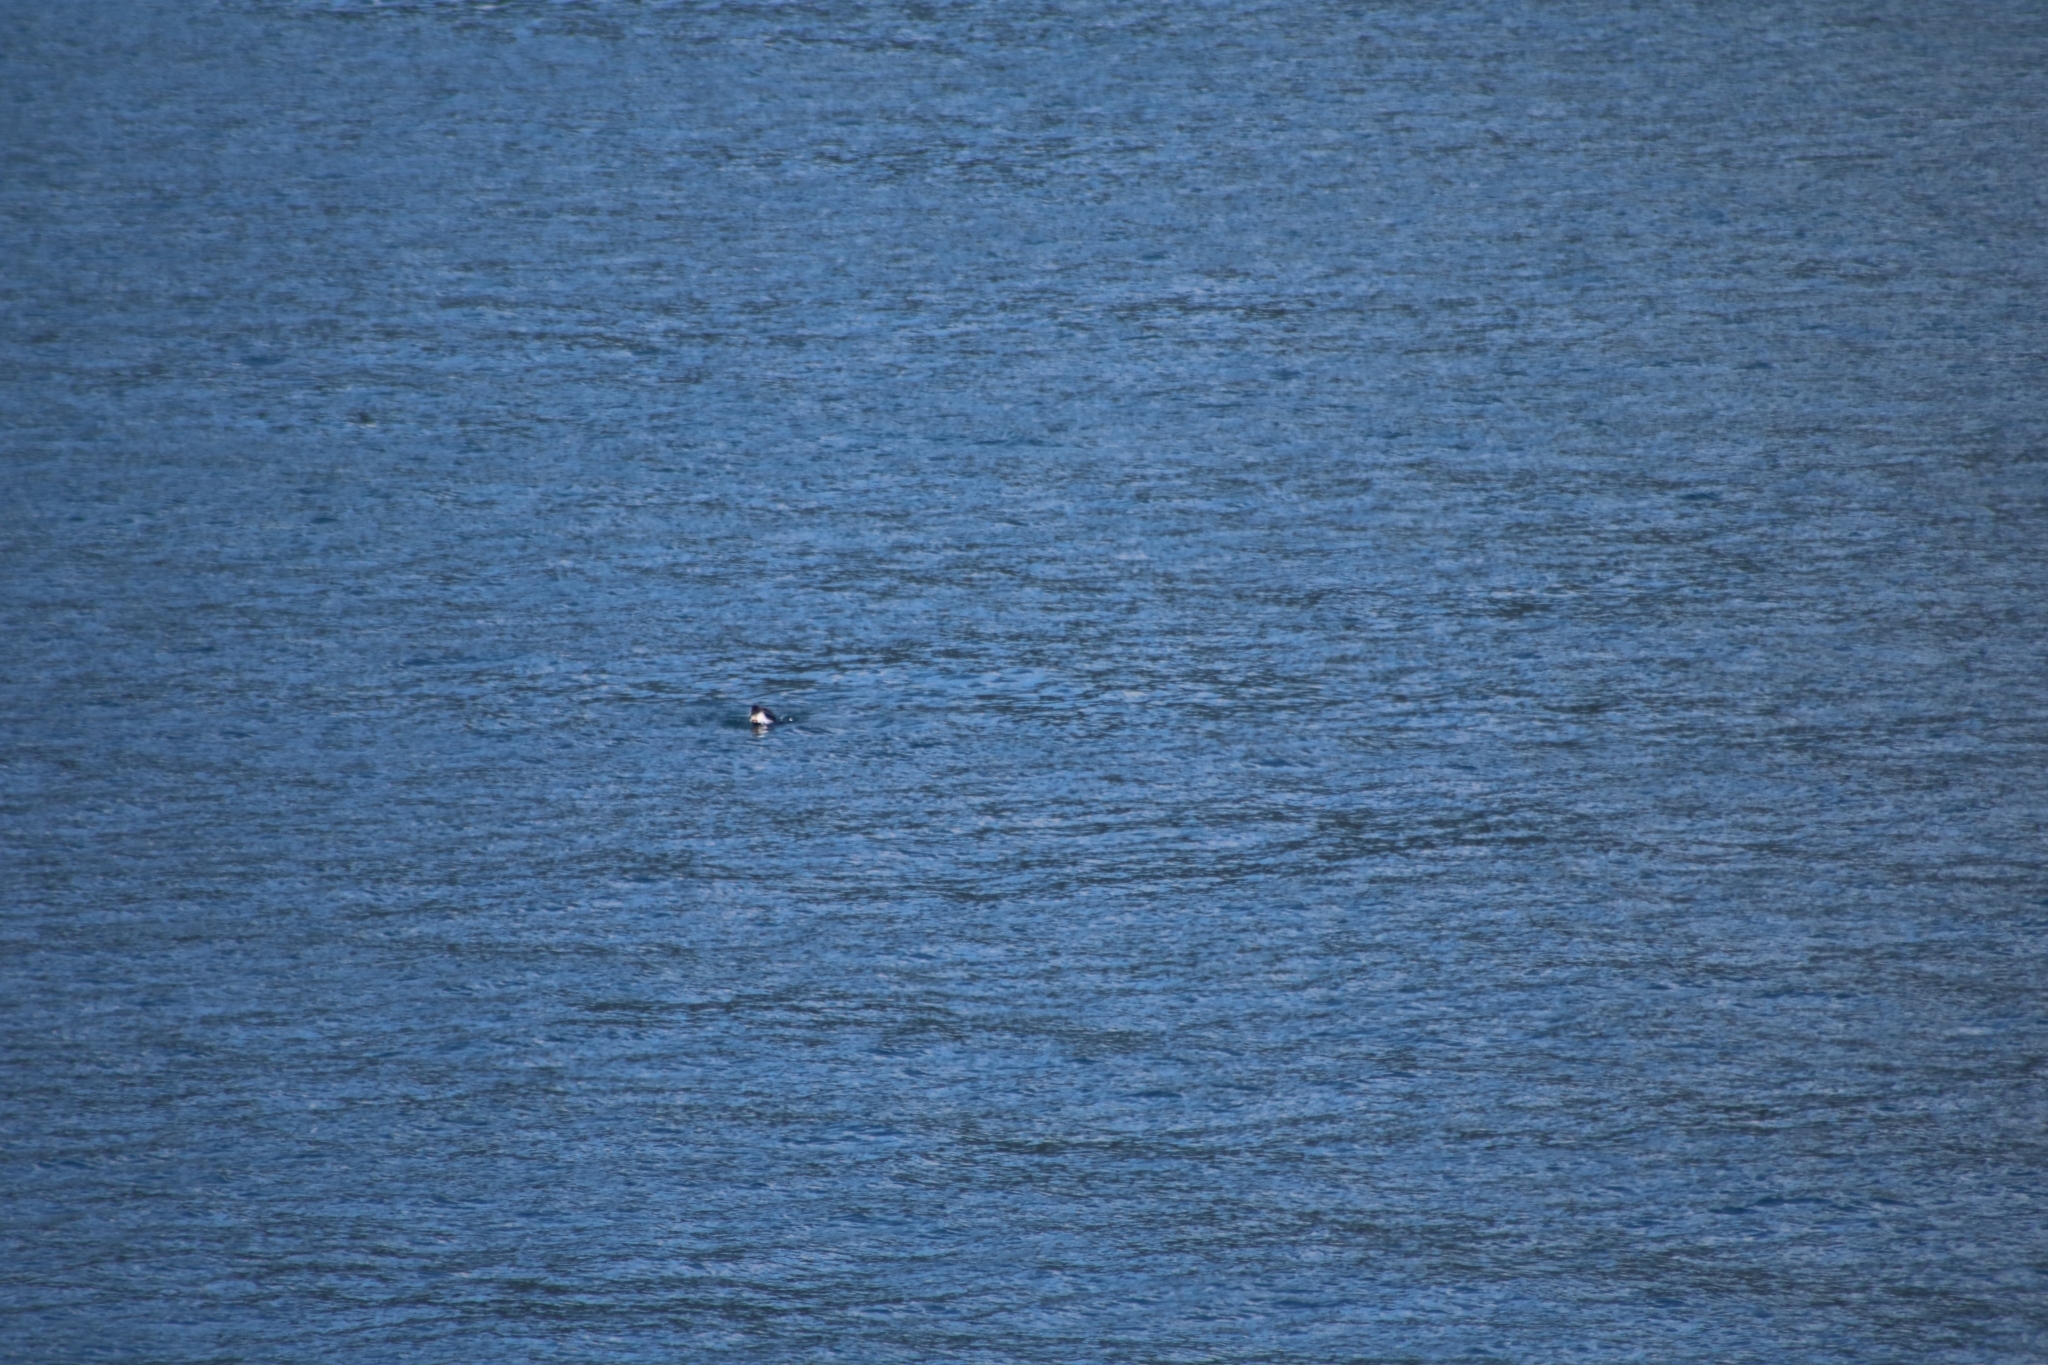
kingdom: Animalia
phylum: Chordata
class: Mammalia
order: Carnivora
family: Otariidae
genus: Arctocephalus
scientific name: Arctocephalus forsteri
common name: New zealand fur seal
